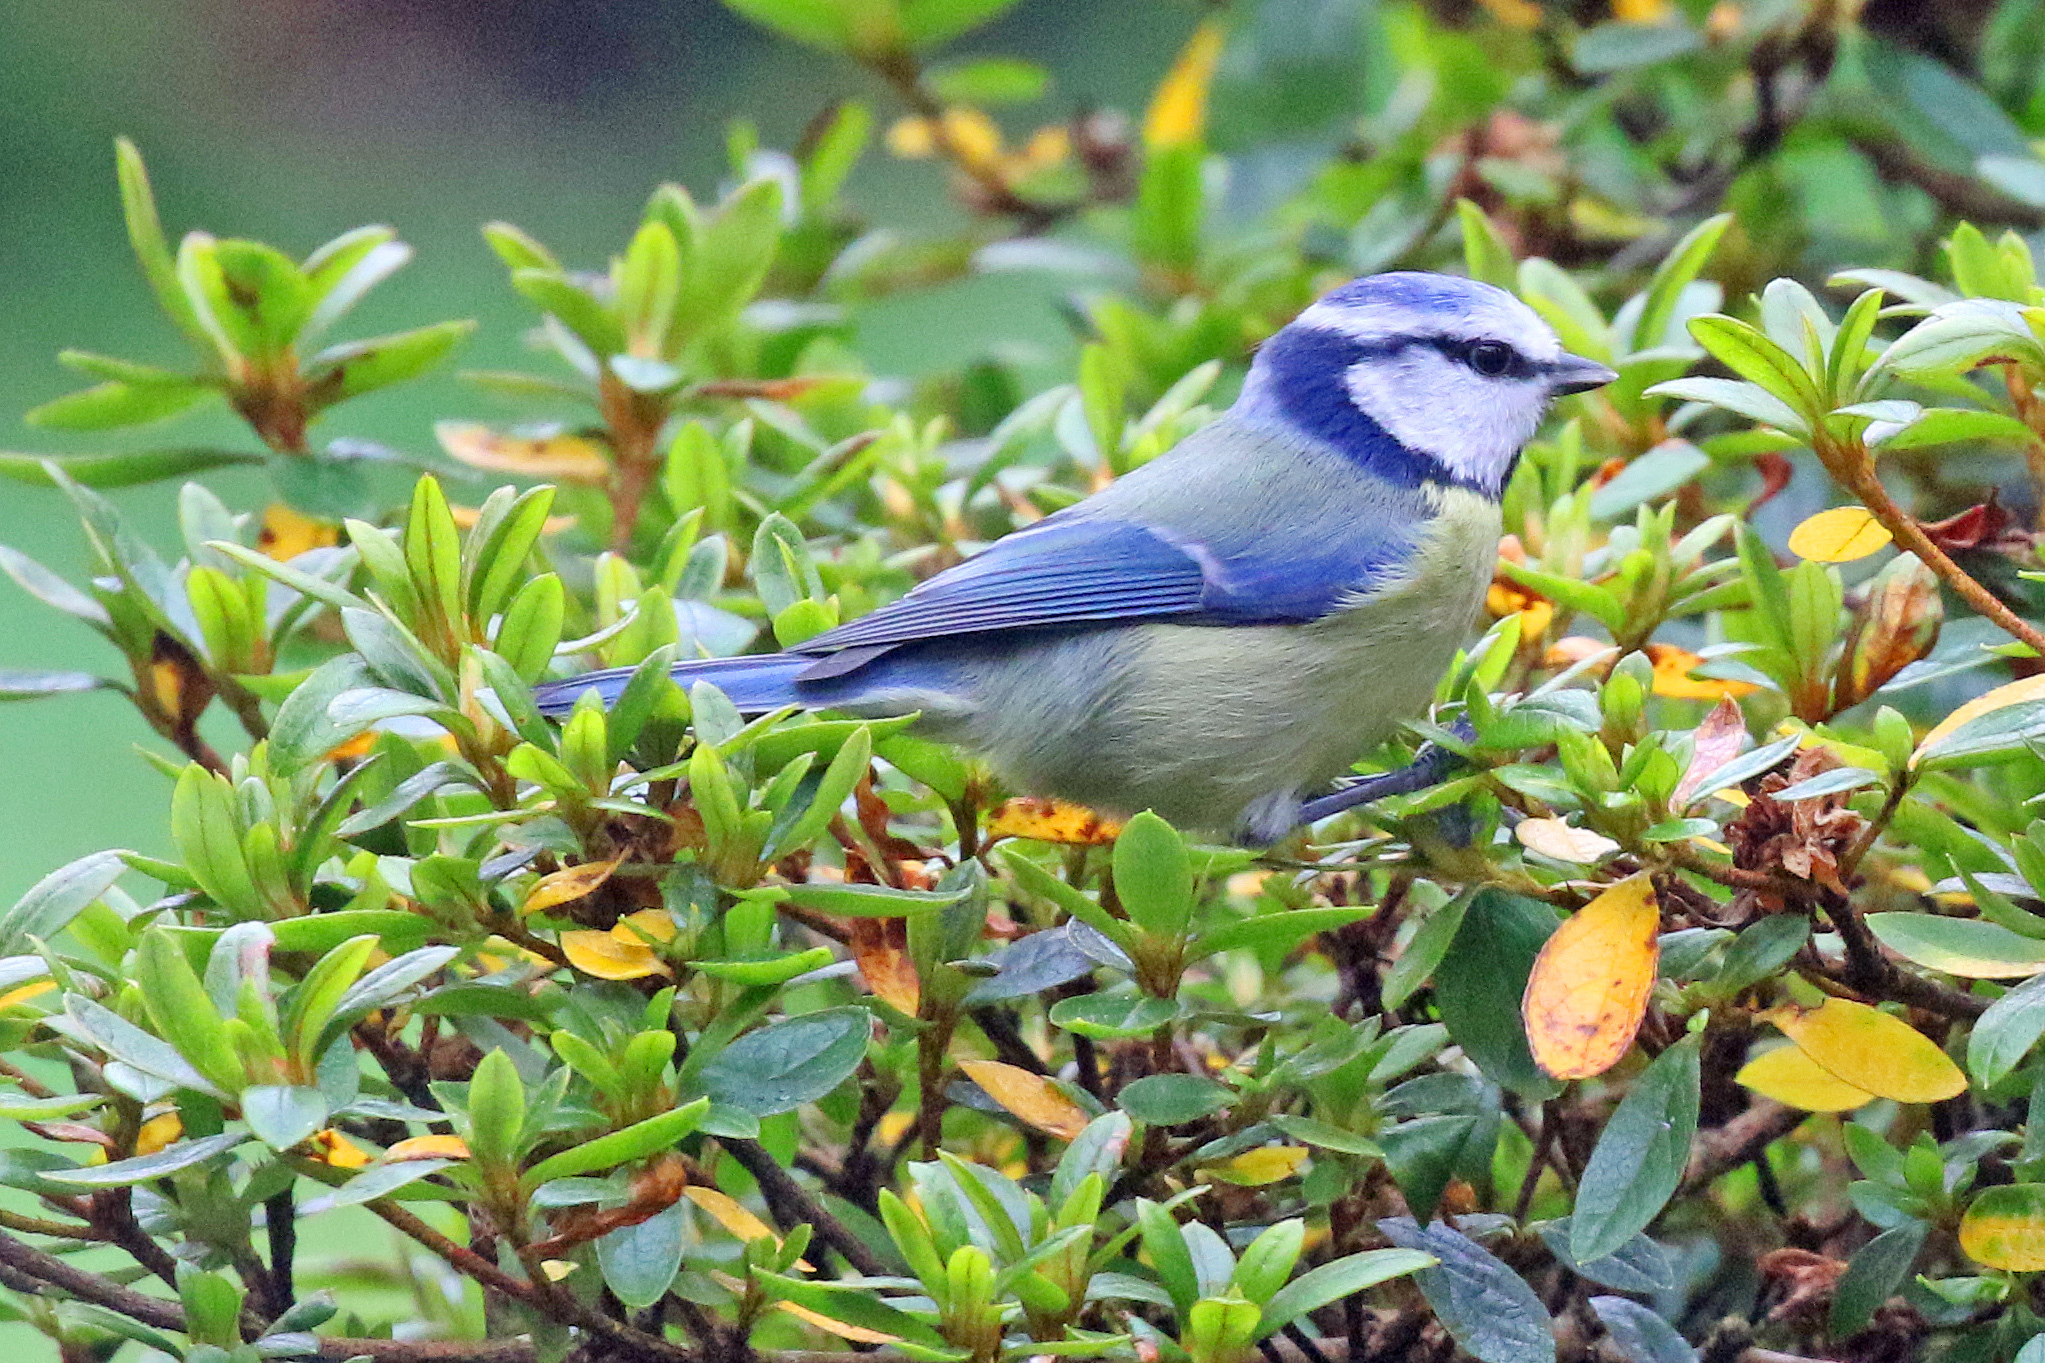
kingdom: Animalia
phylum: Chordata
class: Aves
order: Passeriformes
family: Paridae
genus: Cyanistes
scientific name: Cyanistes caeruleus
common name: Eurasian blue tit
